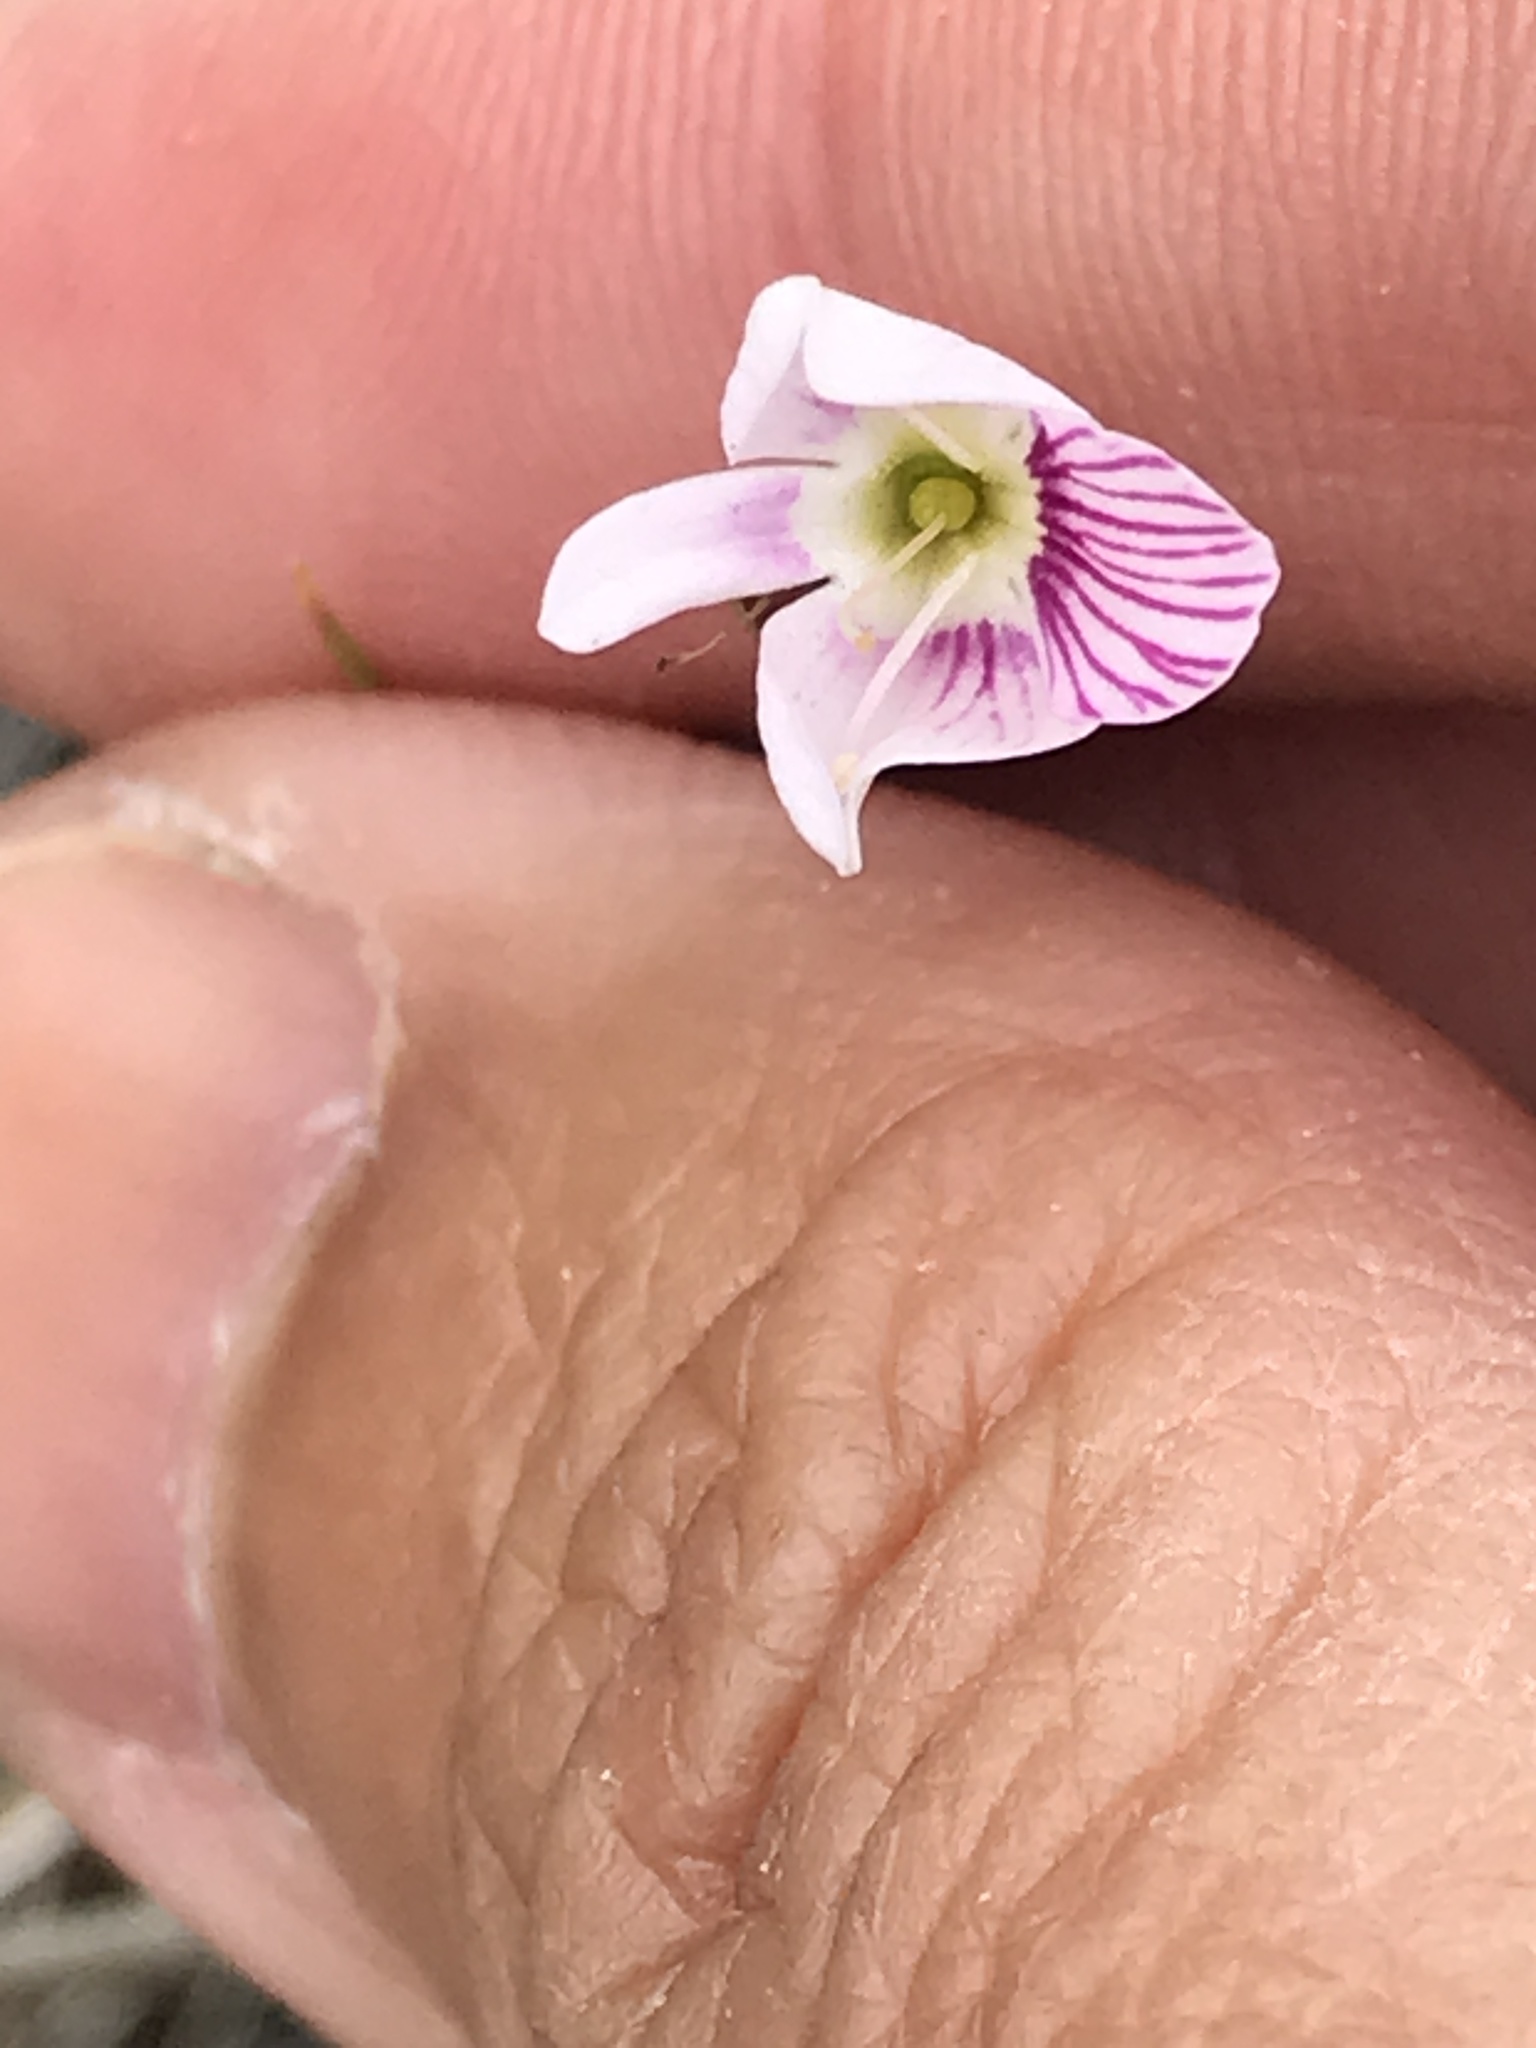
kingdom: Plantae
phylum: Tracheophyta
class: Magnoliopsida
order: Lamiales
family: Plantaginaceae
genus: Veronica
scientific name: Veronica decora
